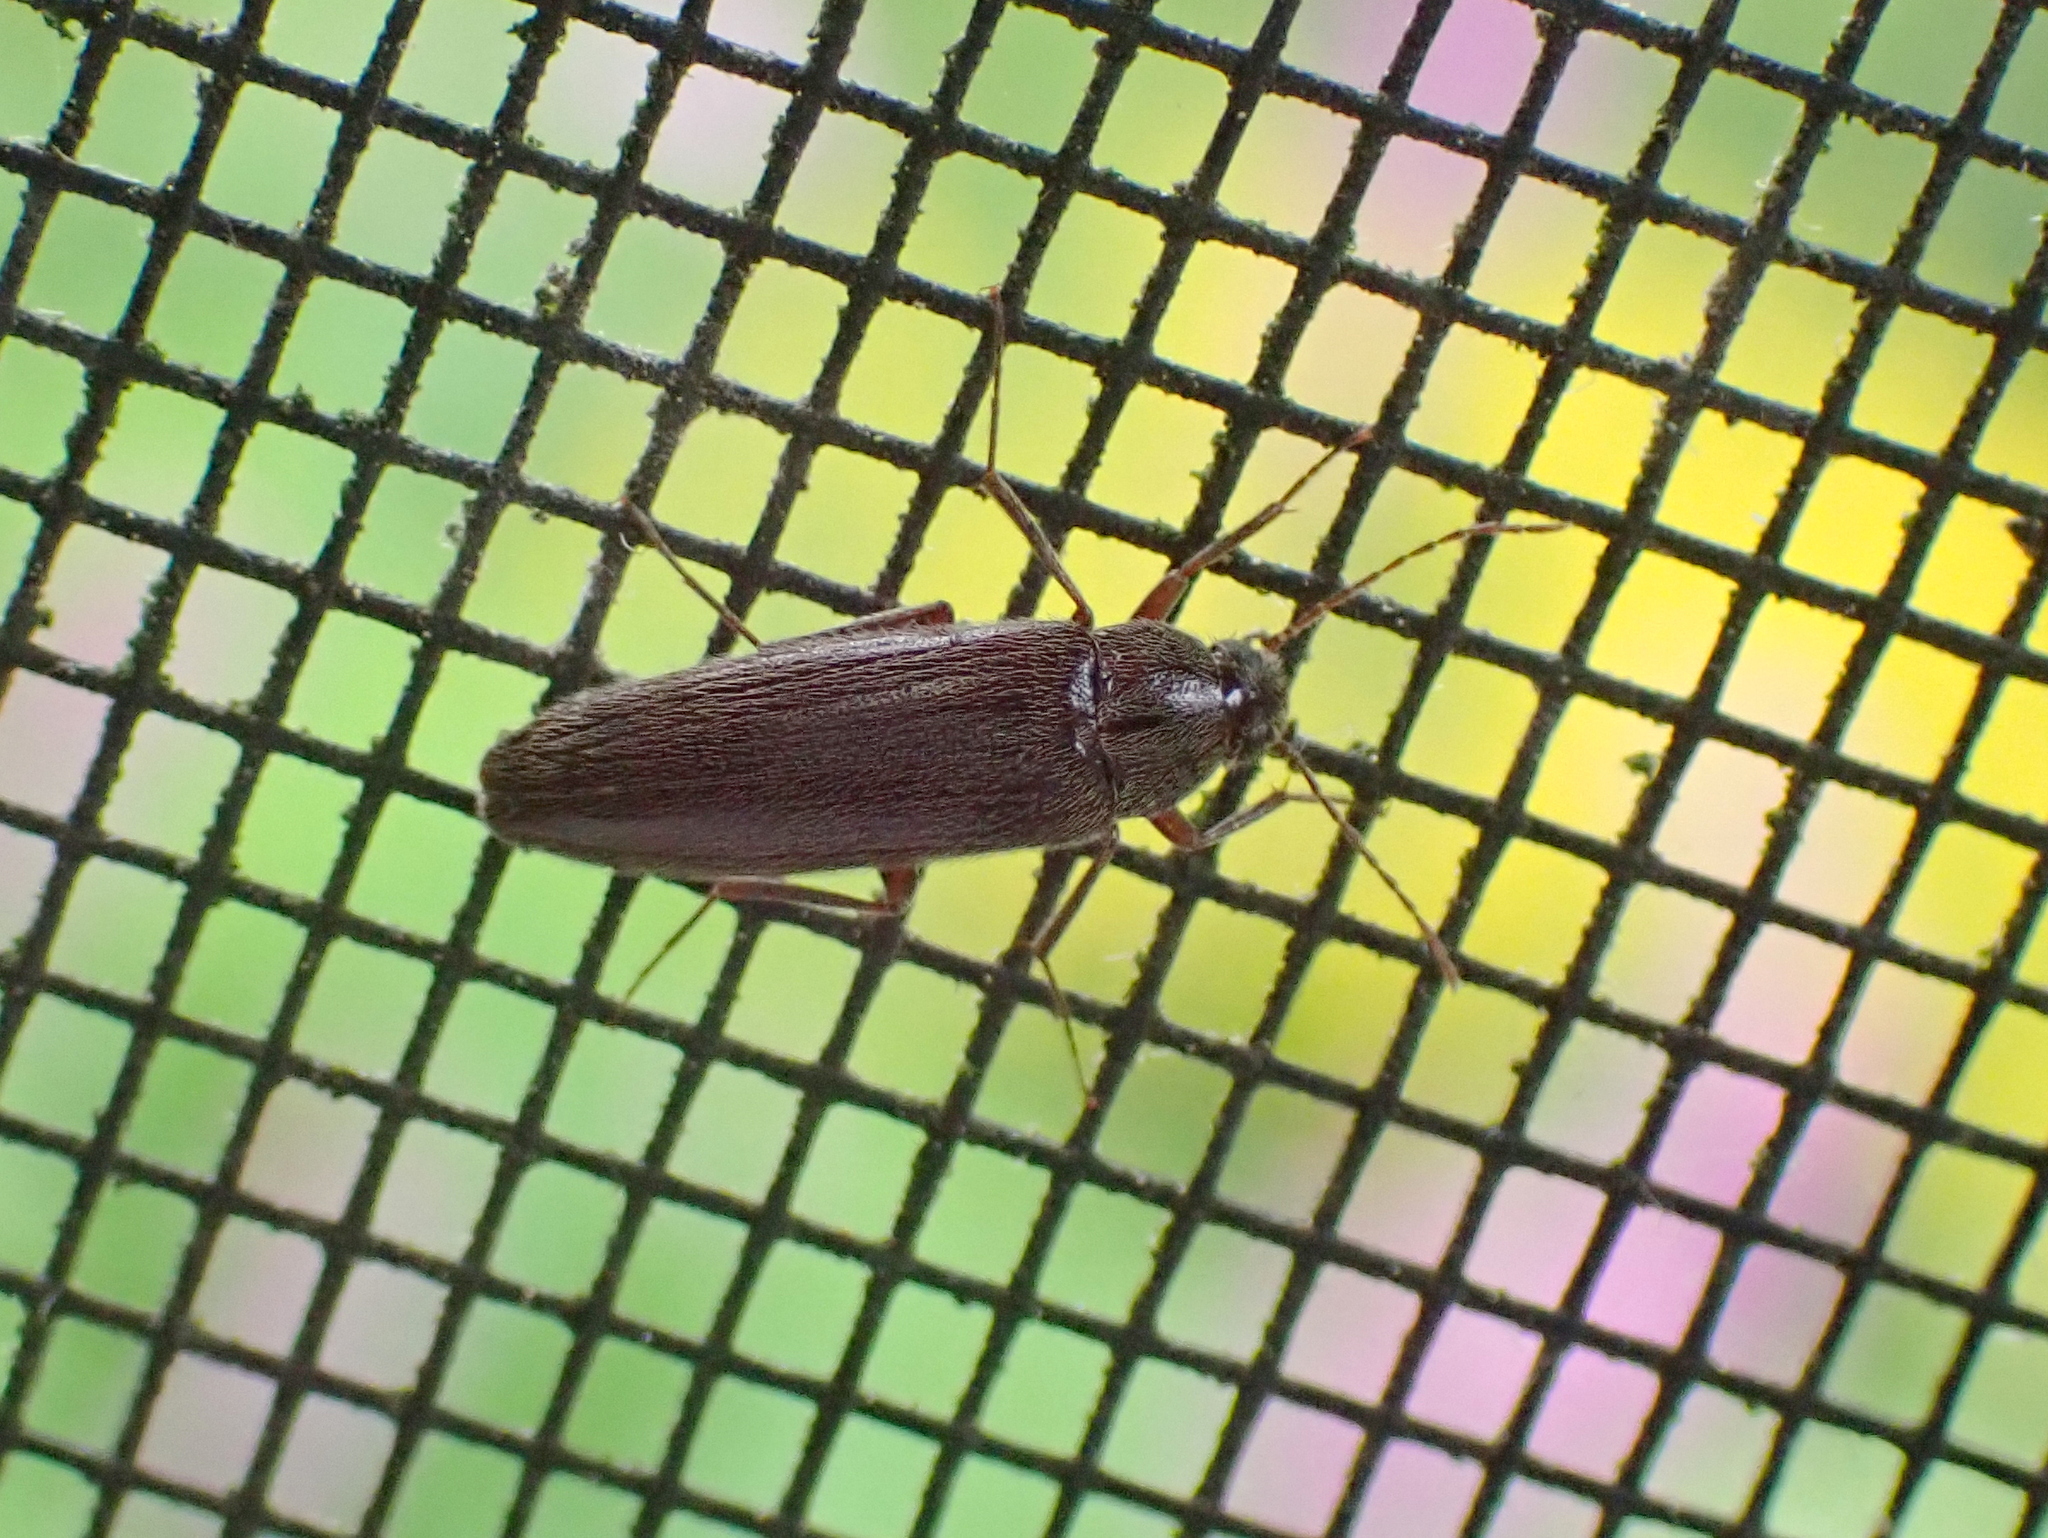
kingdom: Animalia
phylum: Arthropoda
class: Insecta
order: Coleoptera
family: Synchroidae
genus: Synchroa
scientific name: Synchroa punctata
